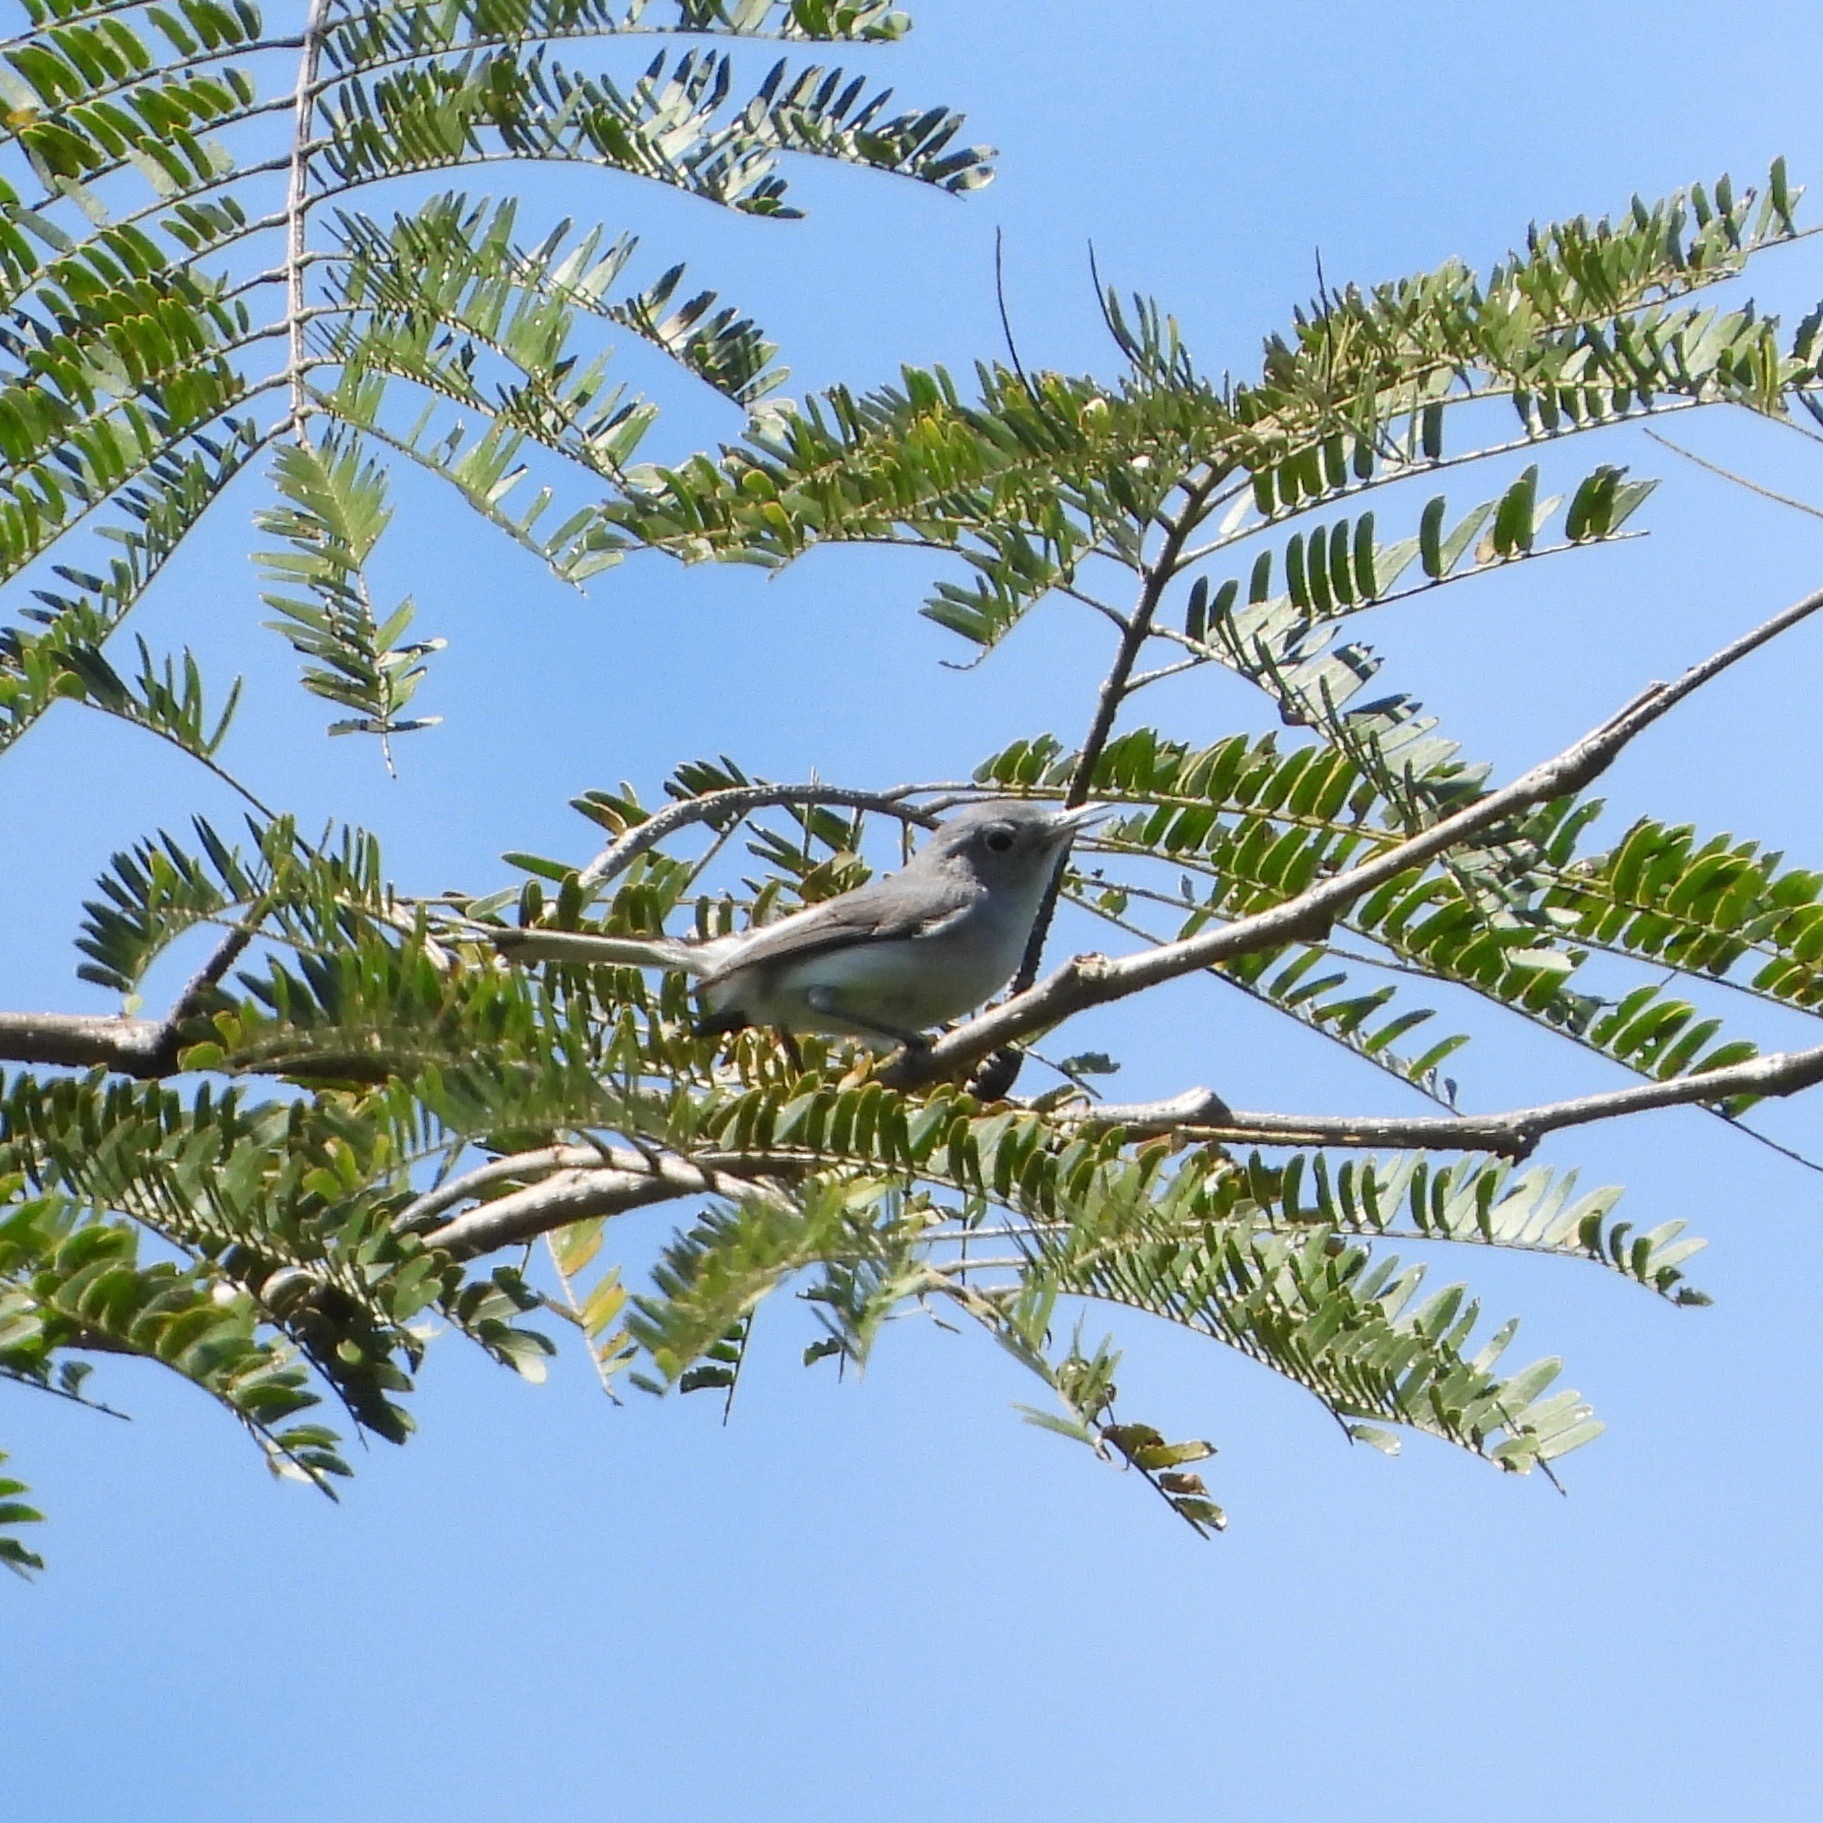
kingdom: Animalia
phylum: Chordata
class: Aves
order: Passeriformes
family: Polioptilidae
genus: Polioptila
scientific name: Polioptila caerulea
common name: Blue-gray gnatcatcher
